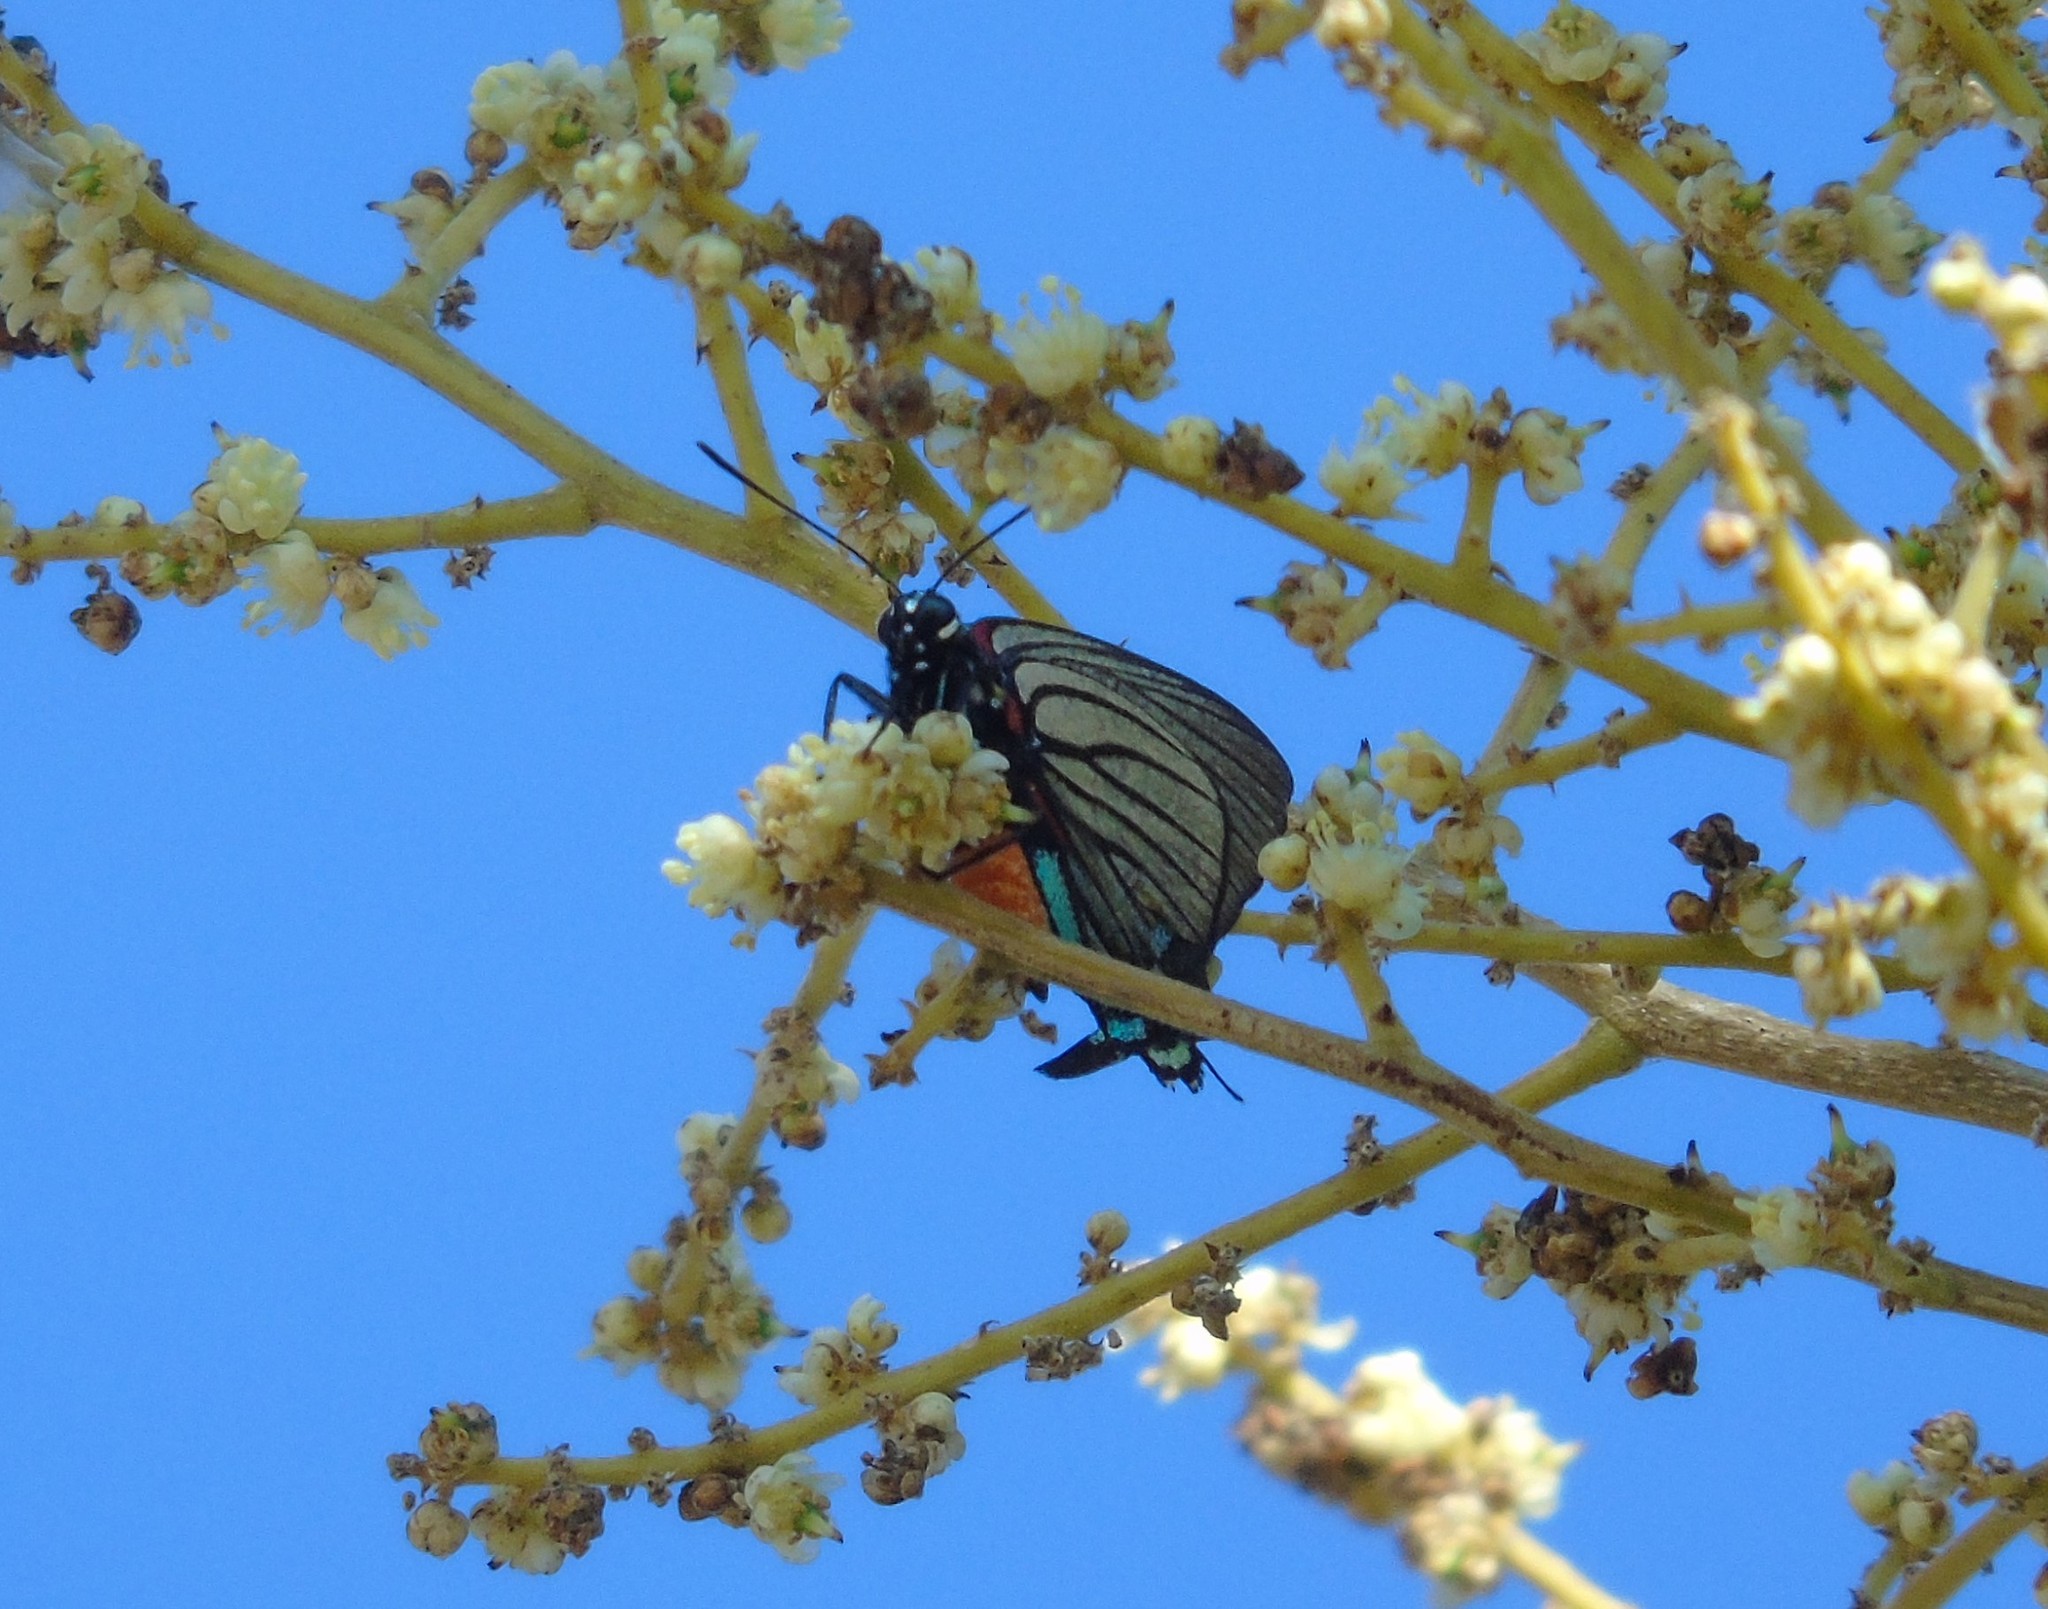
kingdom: Animalia
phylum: Arthropoda
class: Insecta
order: Lepidoptera
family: Lycaenidae
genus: Thecla
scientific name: Thecla polybe
